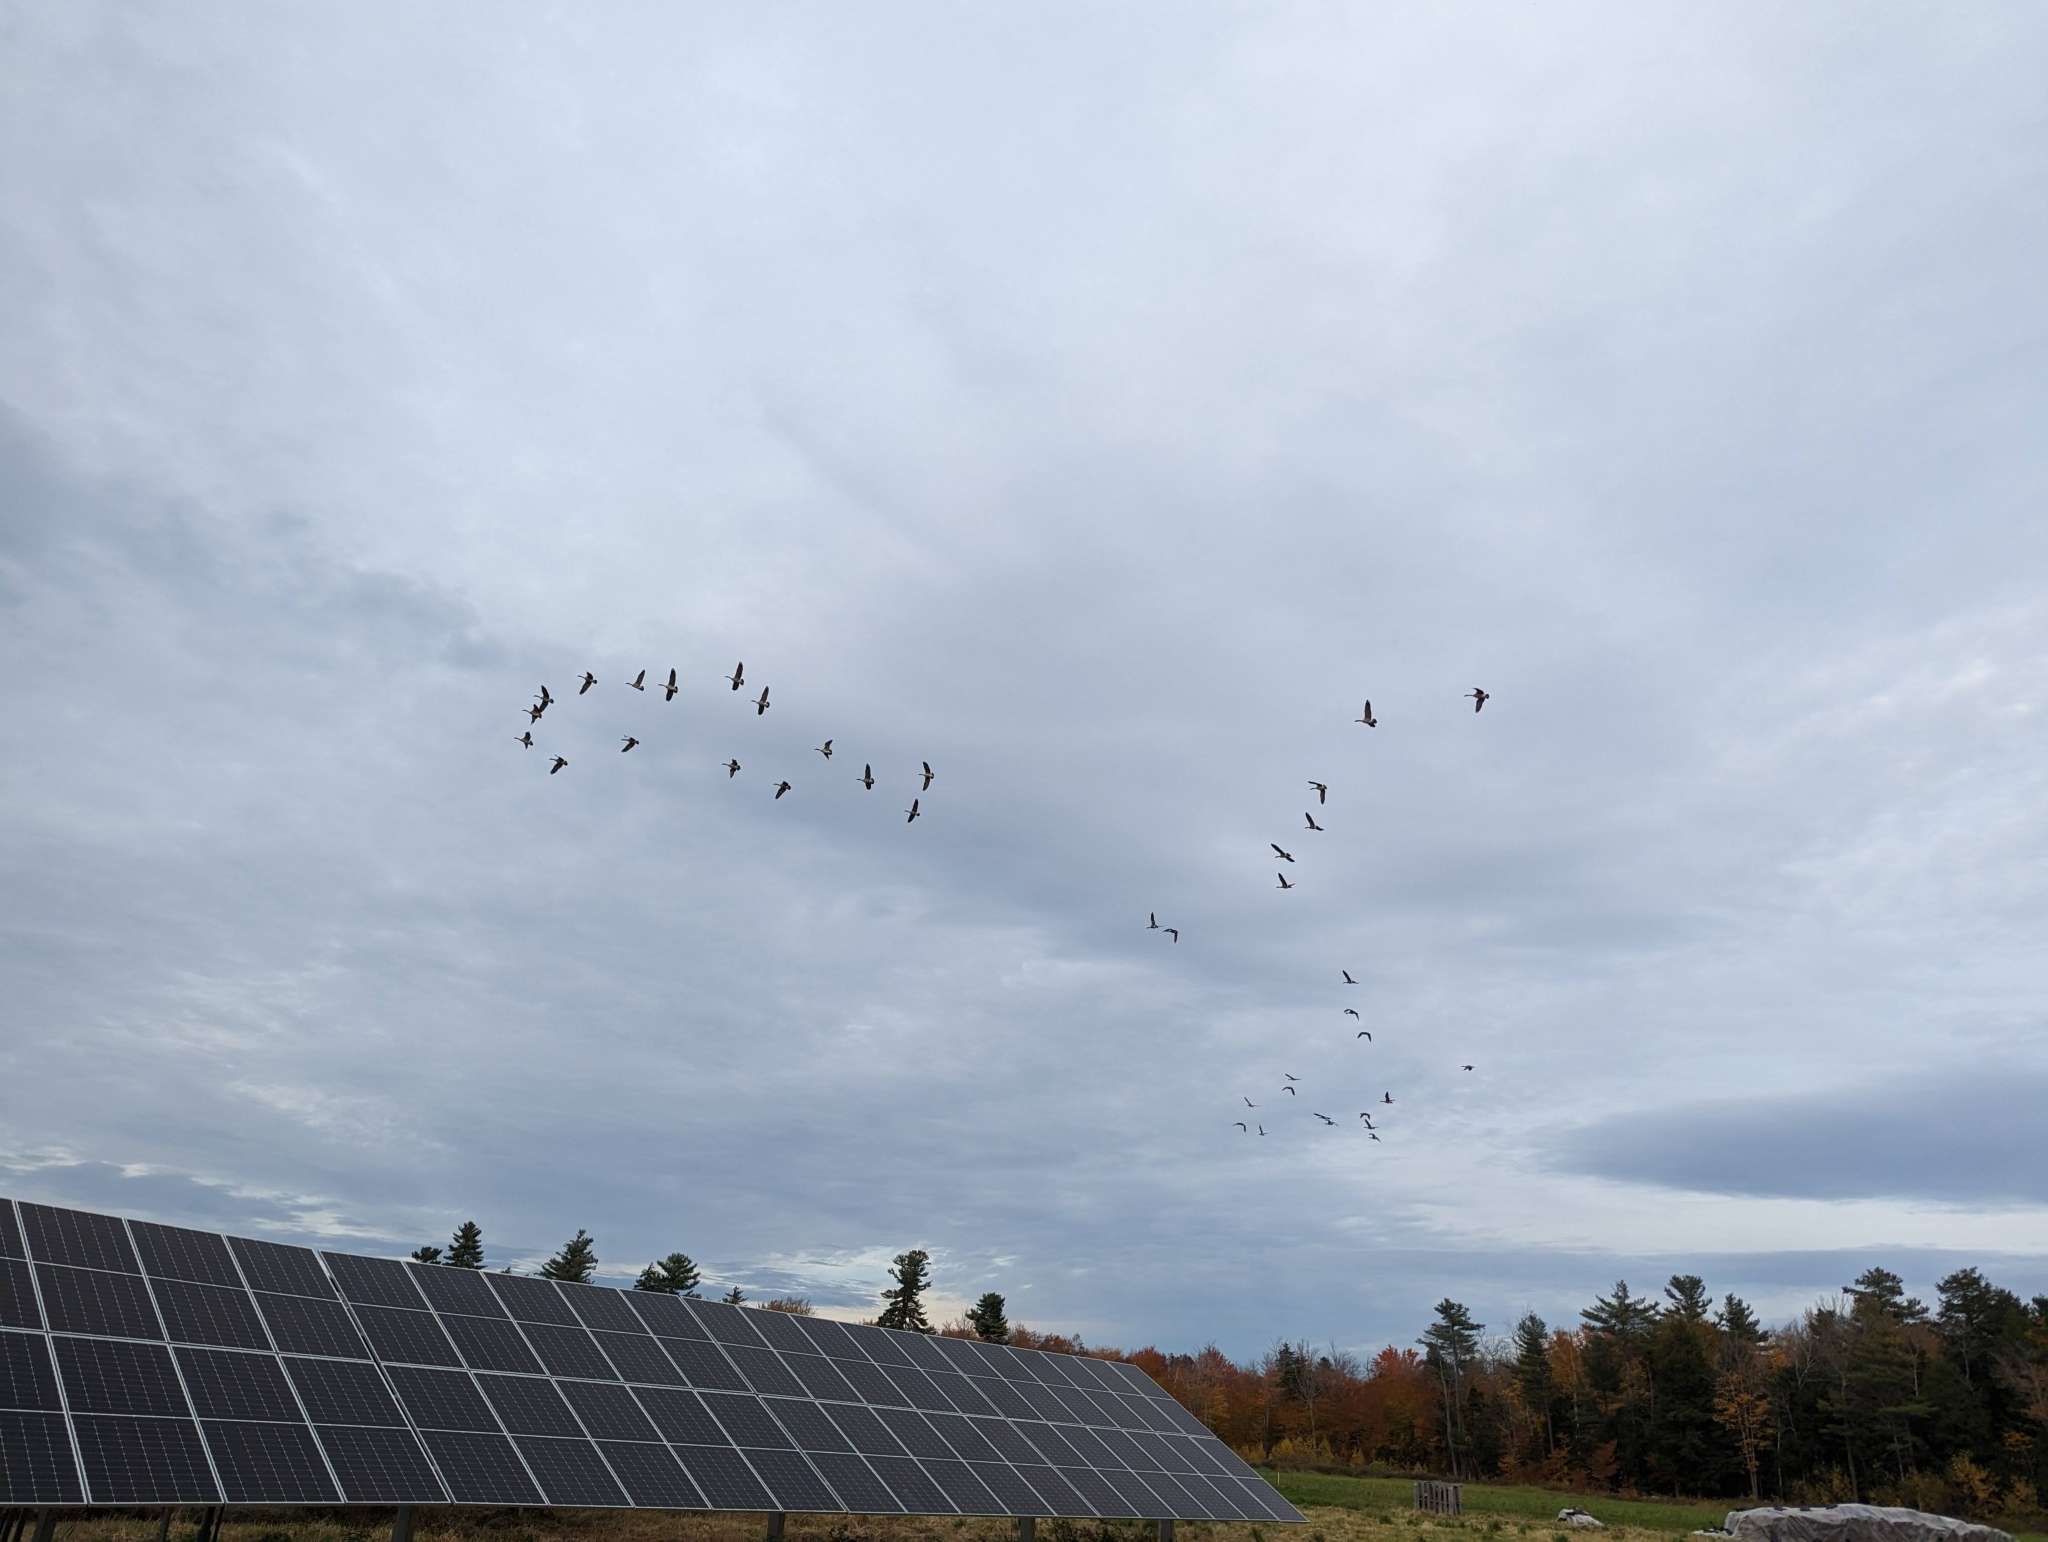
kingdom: Animalia
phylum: Chordata
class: Aves
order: Anseriformes
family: Anatidae
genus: Branta
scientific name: Branta canadensis
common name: Canada goose
